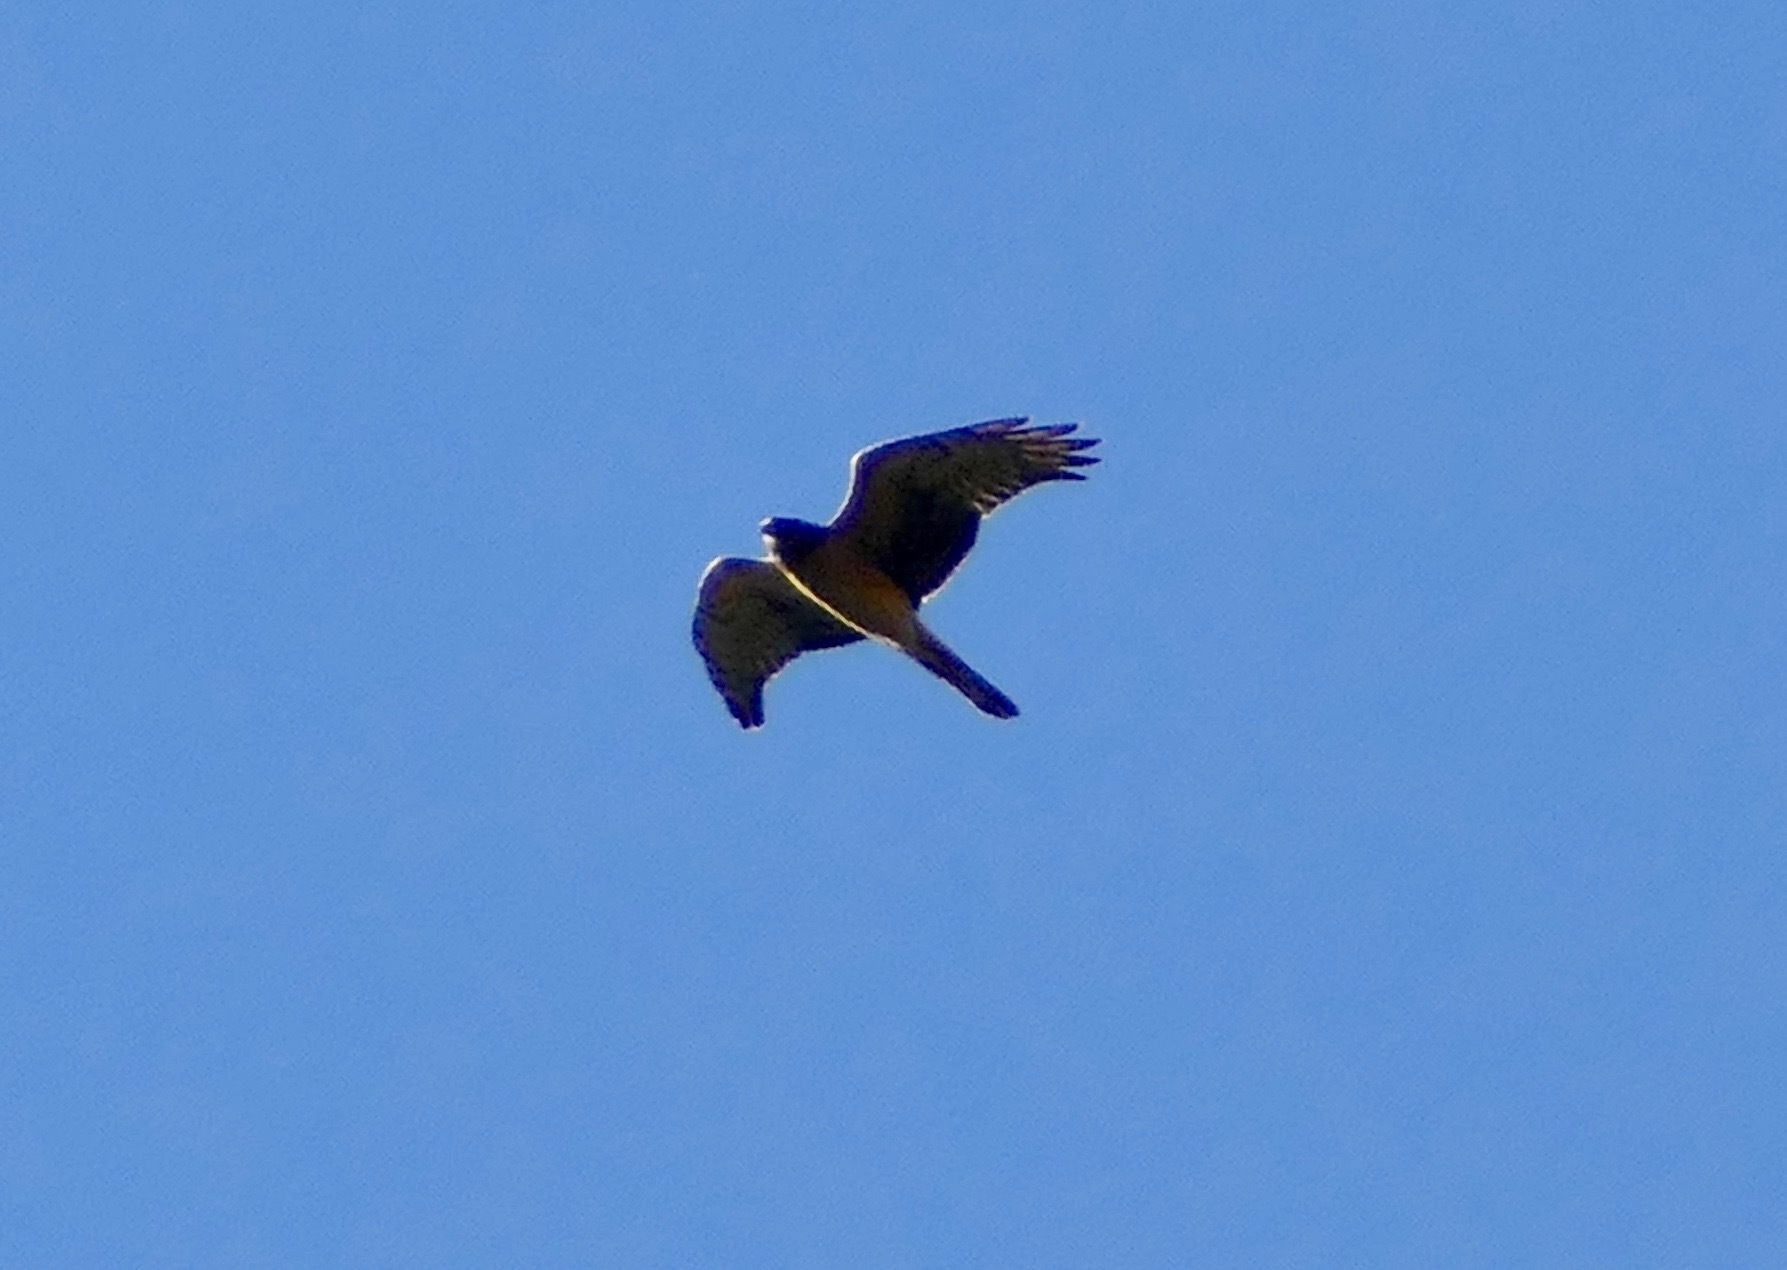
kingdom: Animalia
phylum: Chordata
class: Aves
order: Accipitriformes
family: Accipitridae
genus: Circus
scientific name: Circus cyaneus
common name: Hen harrier
